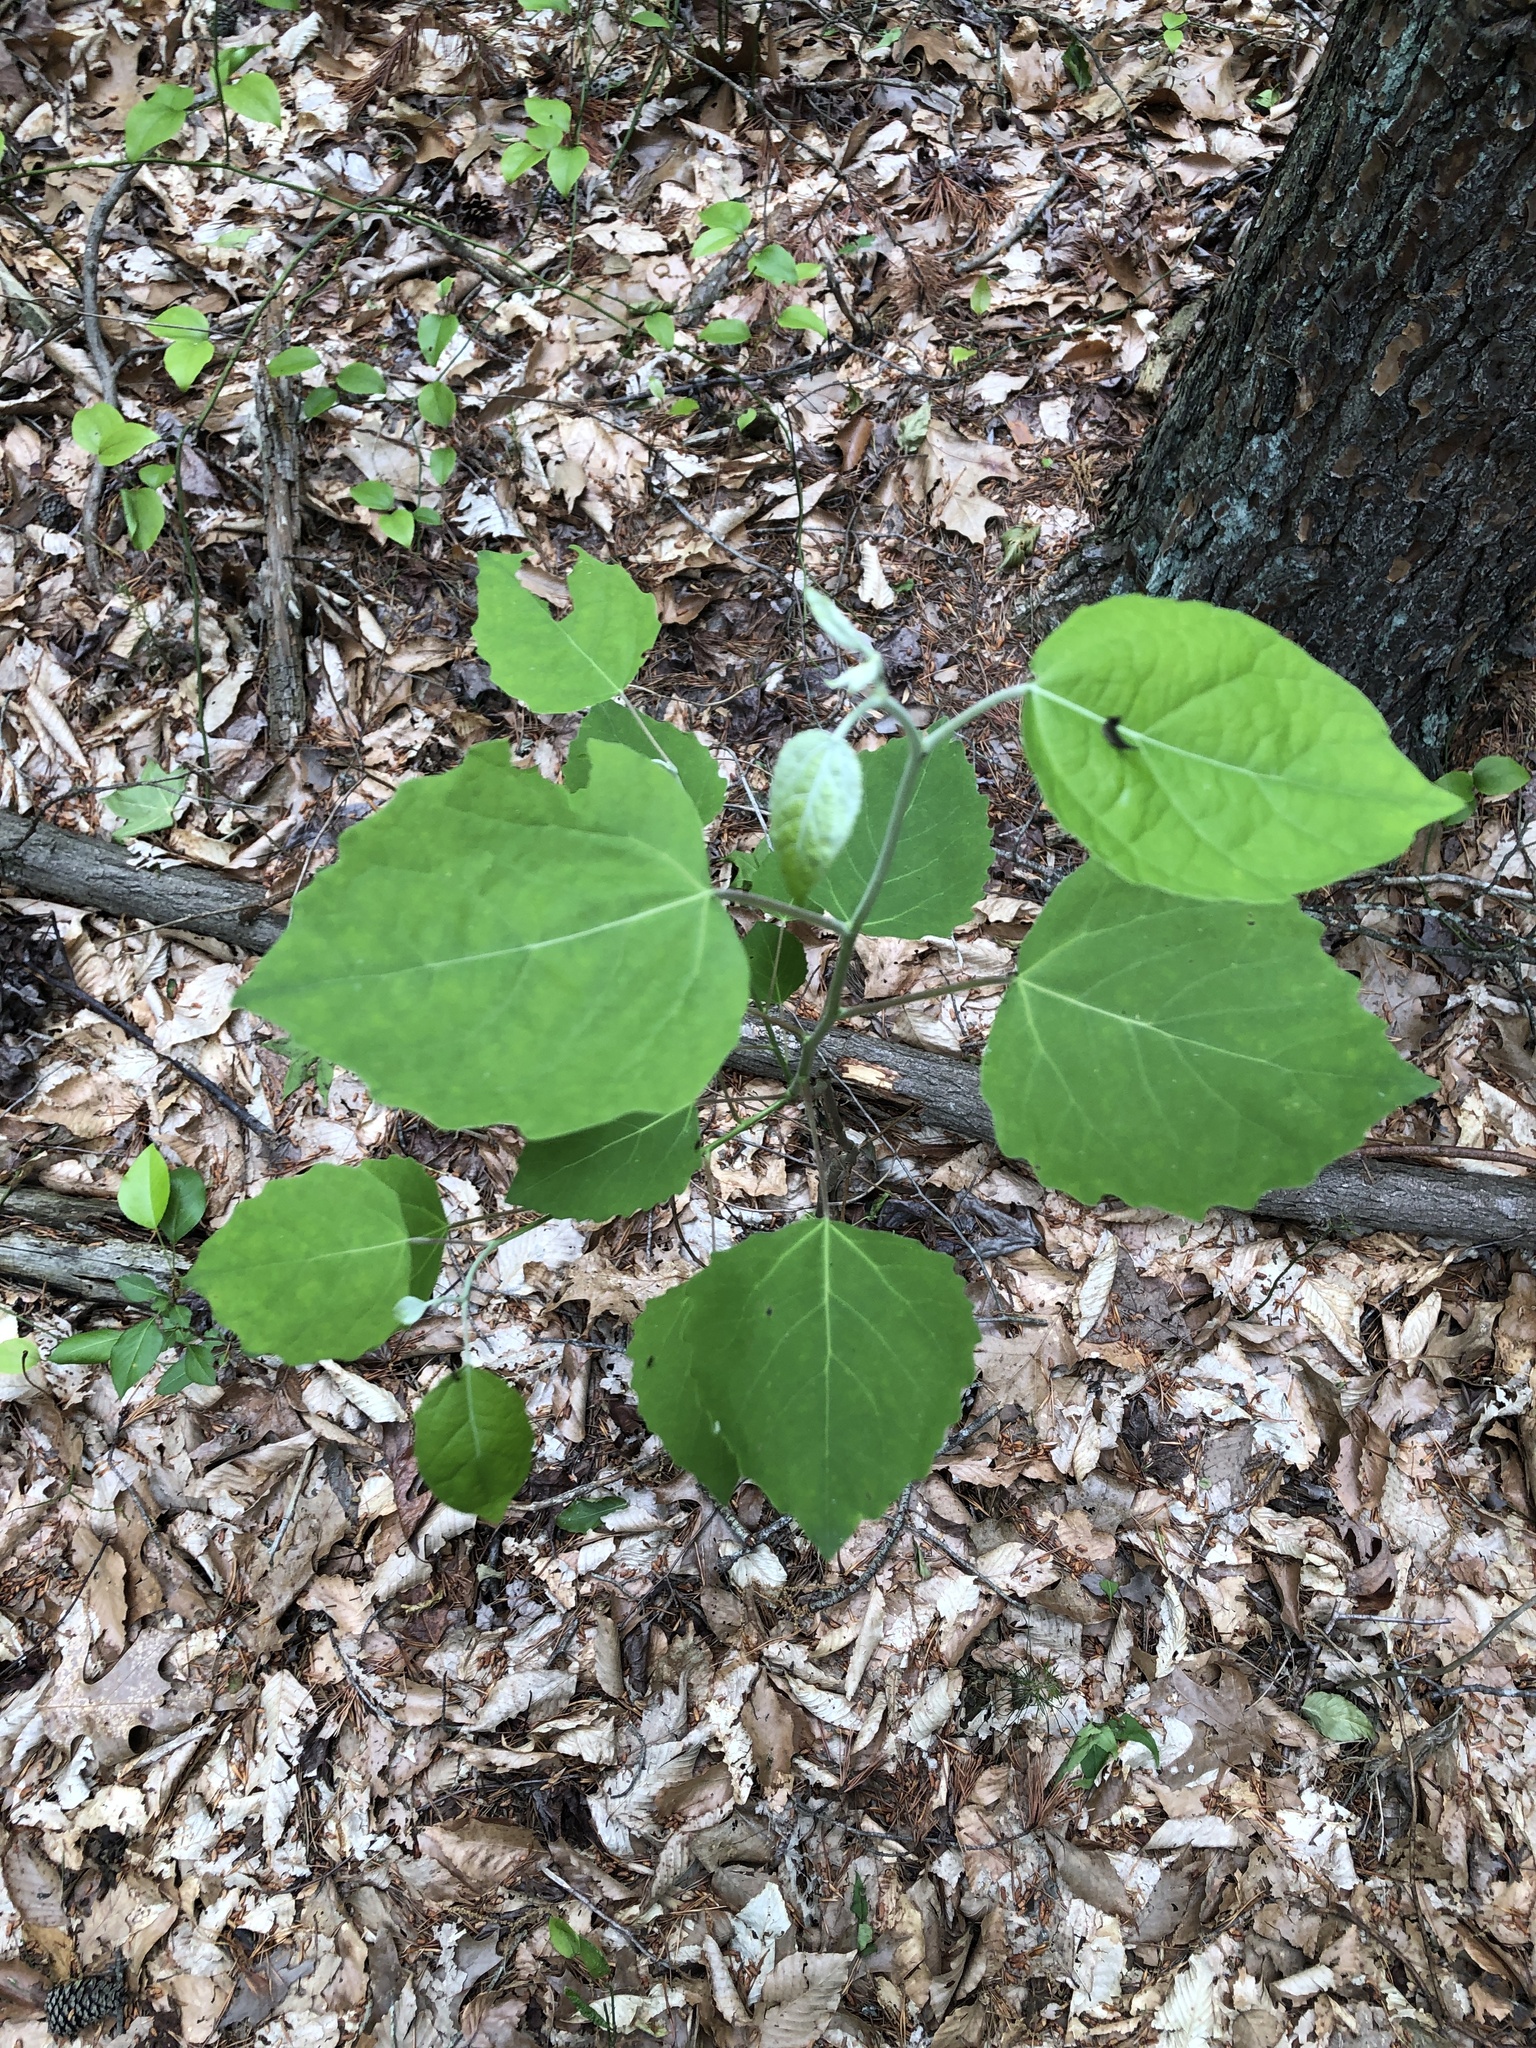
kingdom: Plantae
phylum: Tracheophyta
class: Magnoliopsida
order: Malpighiales
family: Salicaceae
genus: Populus
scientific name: Populus grandidentata
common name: Bigtooth aspen
